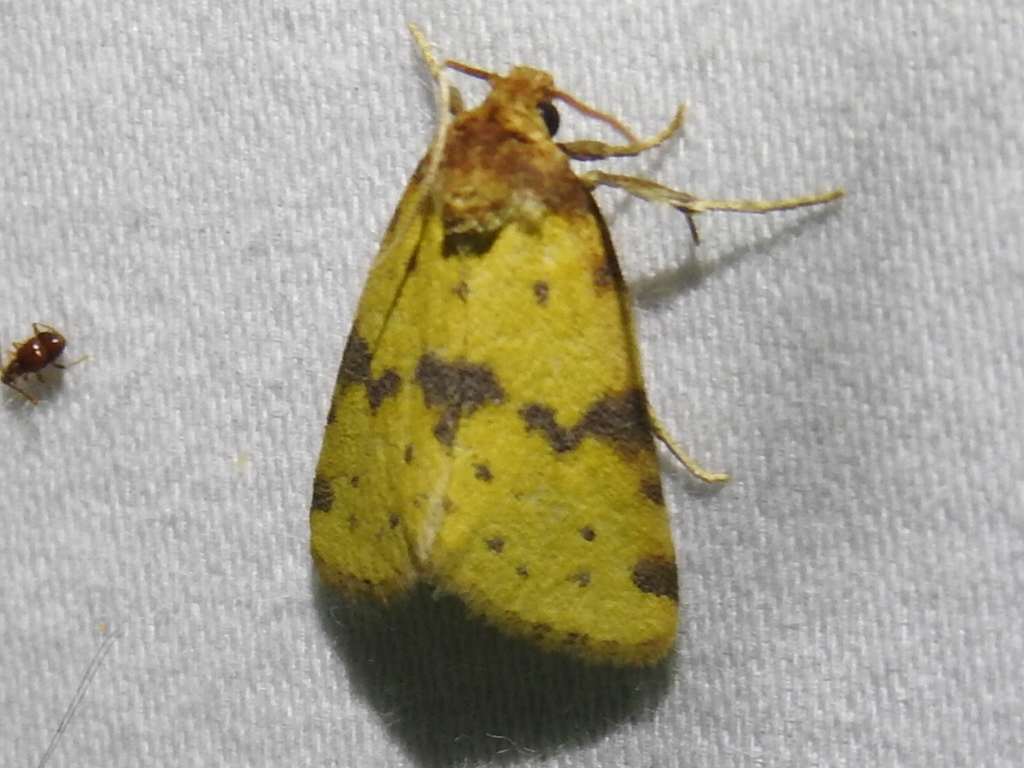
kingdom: Animalia
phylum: Arthropoda
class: Insecta
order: Lepidoptera
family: Noctuidae
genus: Azenia
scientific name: Azenia obtusa
